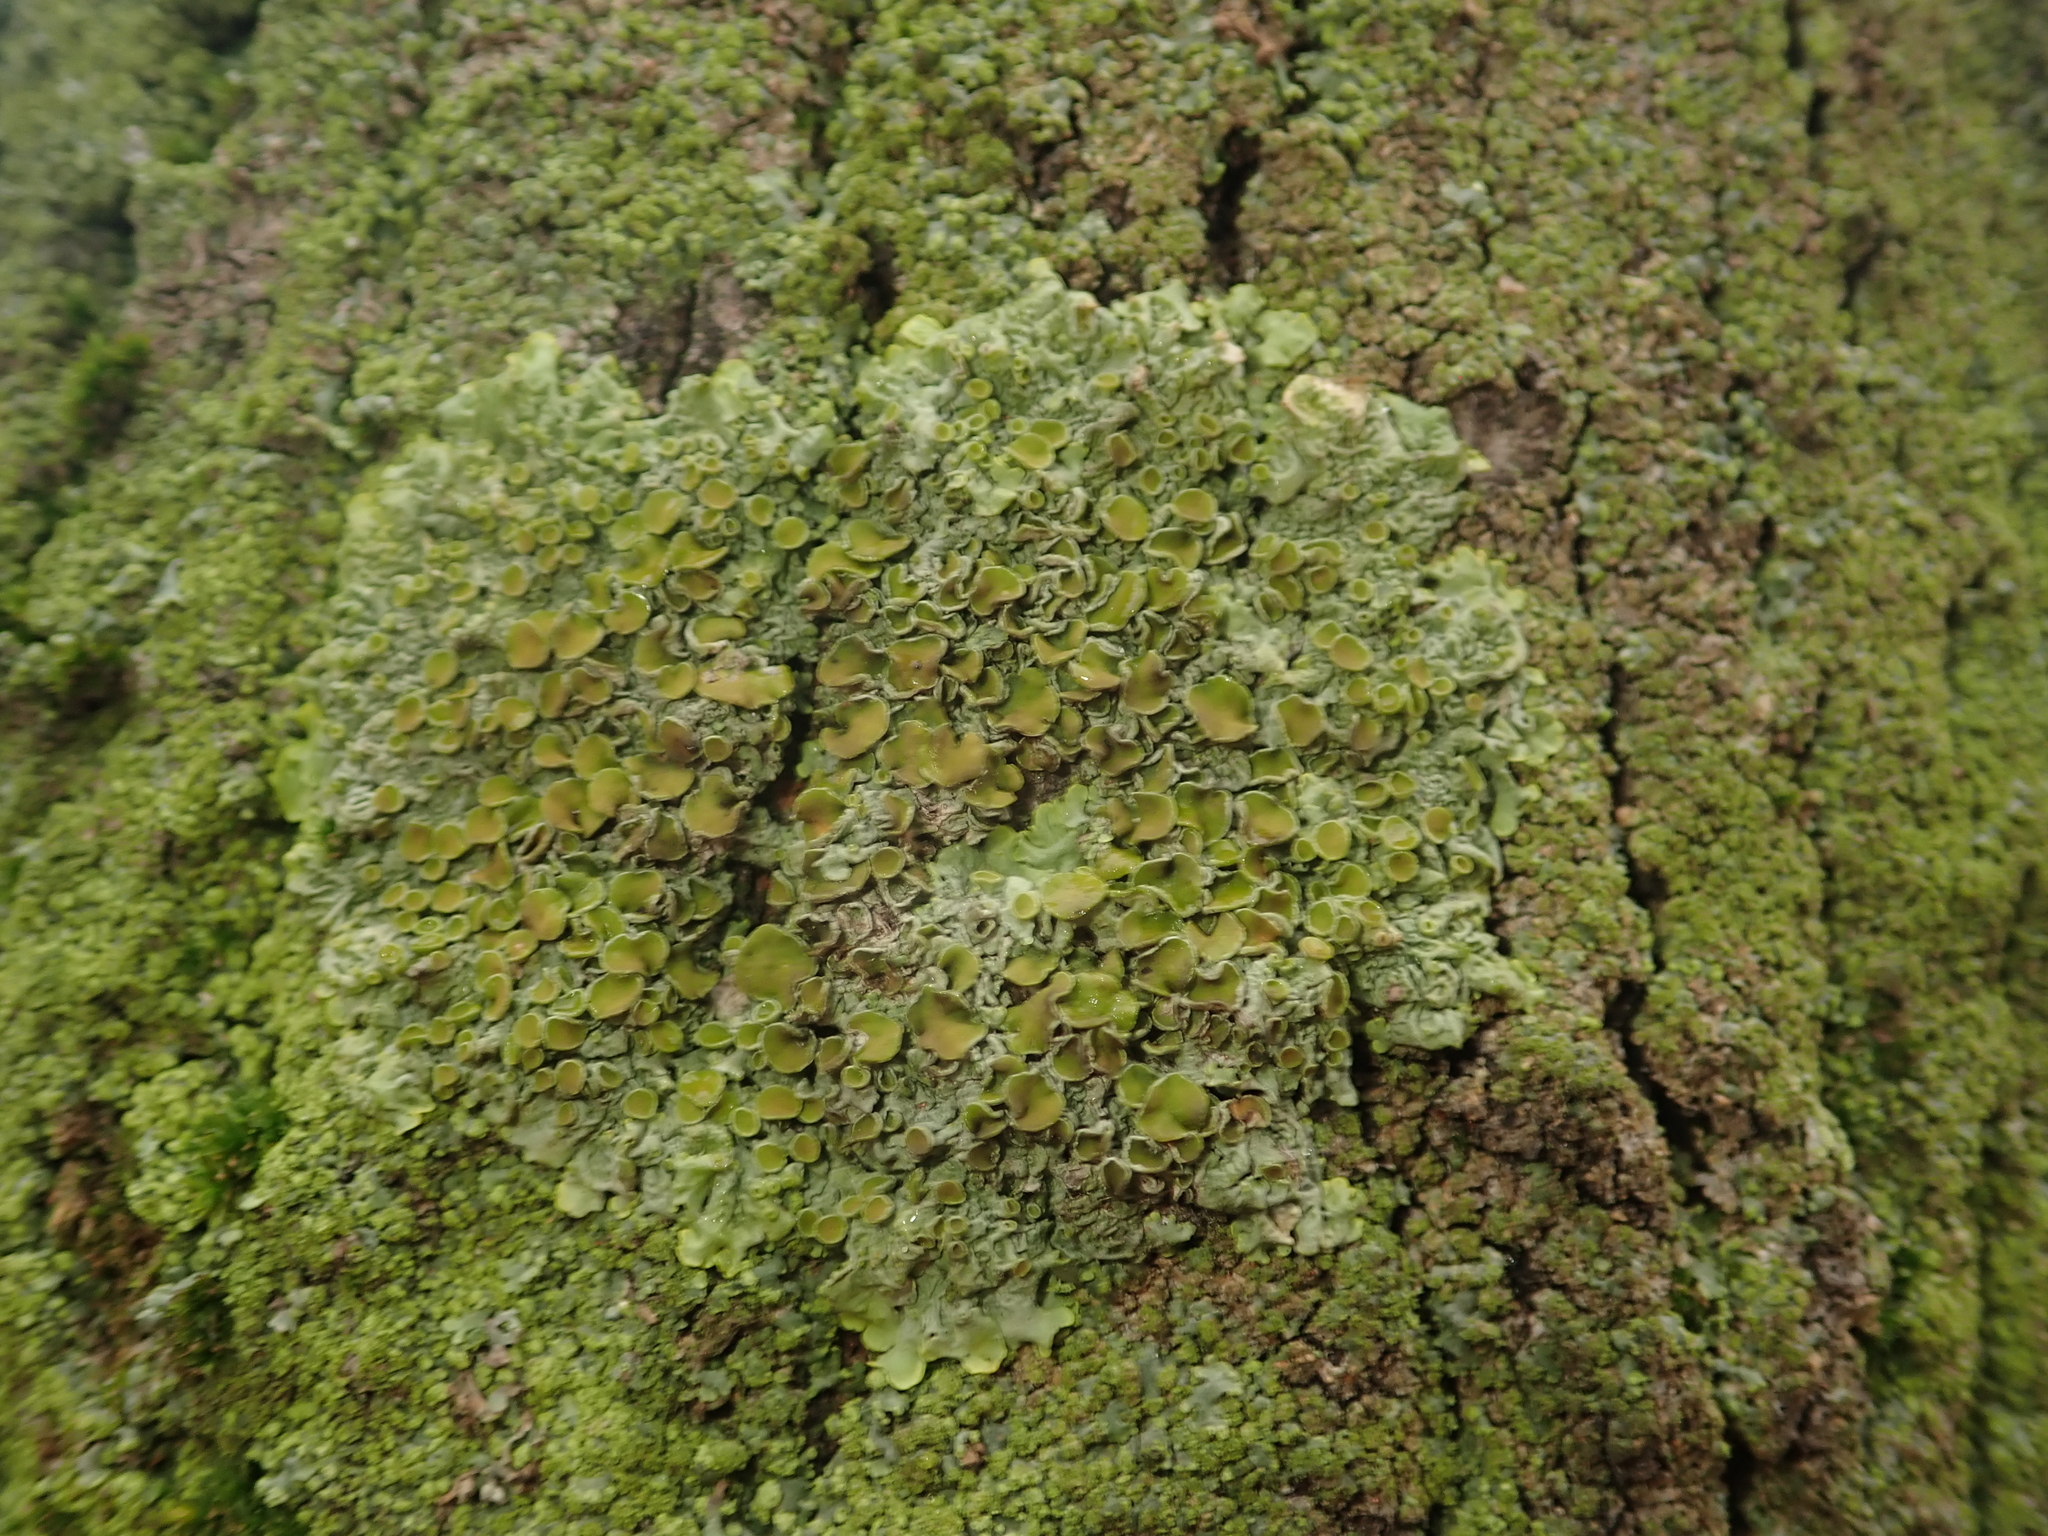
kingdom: Fungi
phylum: Ascomycota
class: Lecanoromycetes
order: Teloschistales
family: Teloschistaceae
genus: Xanthoria
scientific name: Xanthoria parietina
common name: Common orange lichen
